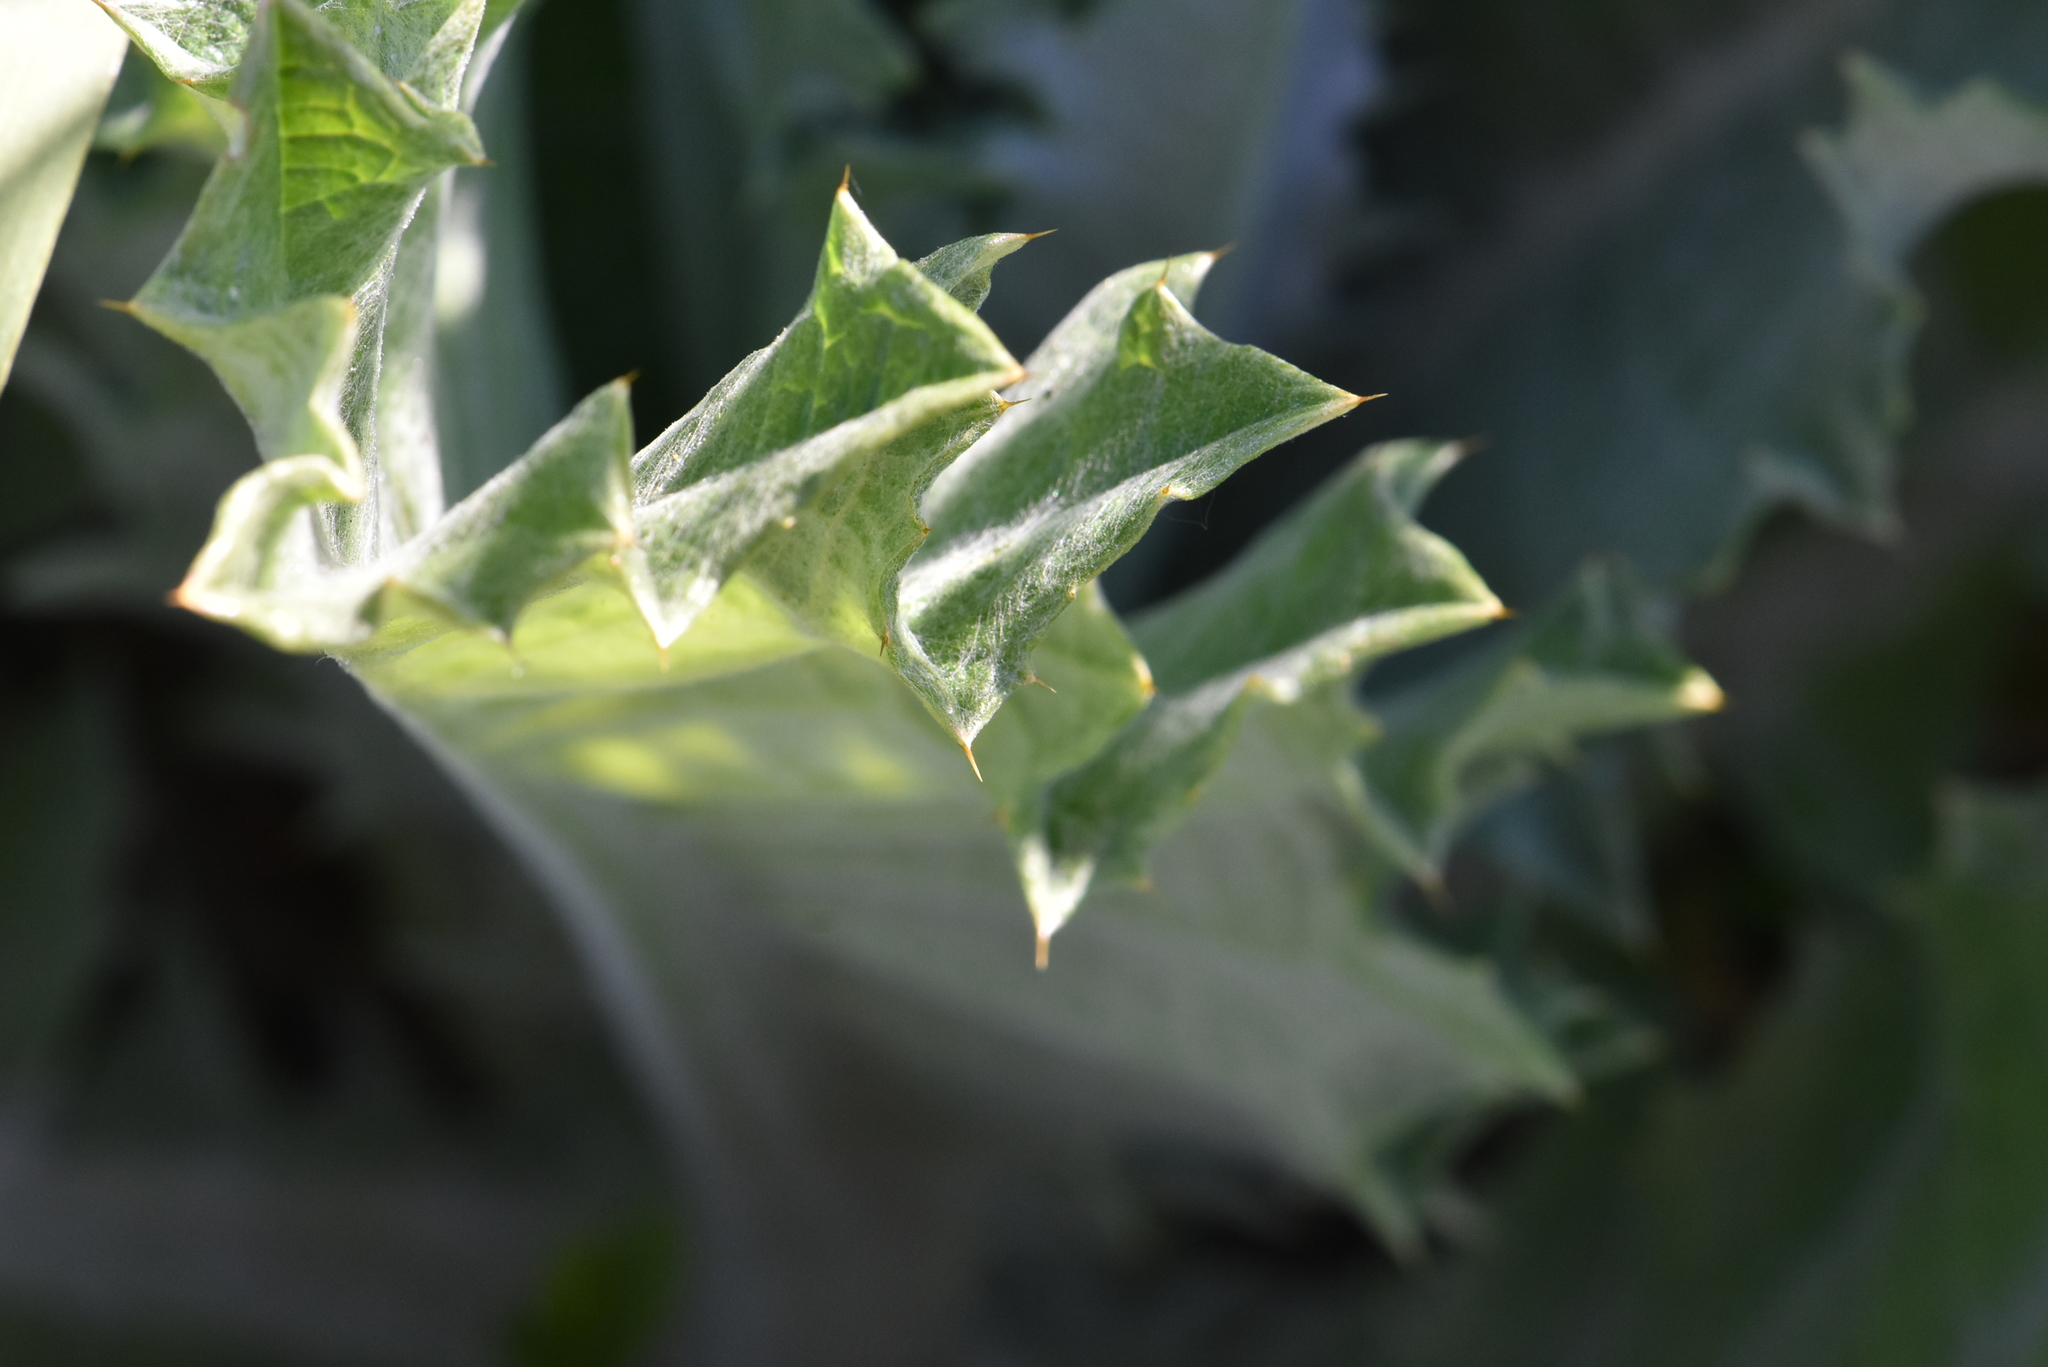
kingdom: Plantae
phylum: Tracheophyta
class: Magnoliopsida
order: Asterales
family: Asteraceae
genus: Onopordum
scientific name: Onopordum acanthium
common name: Scotch thistle
